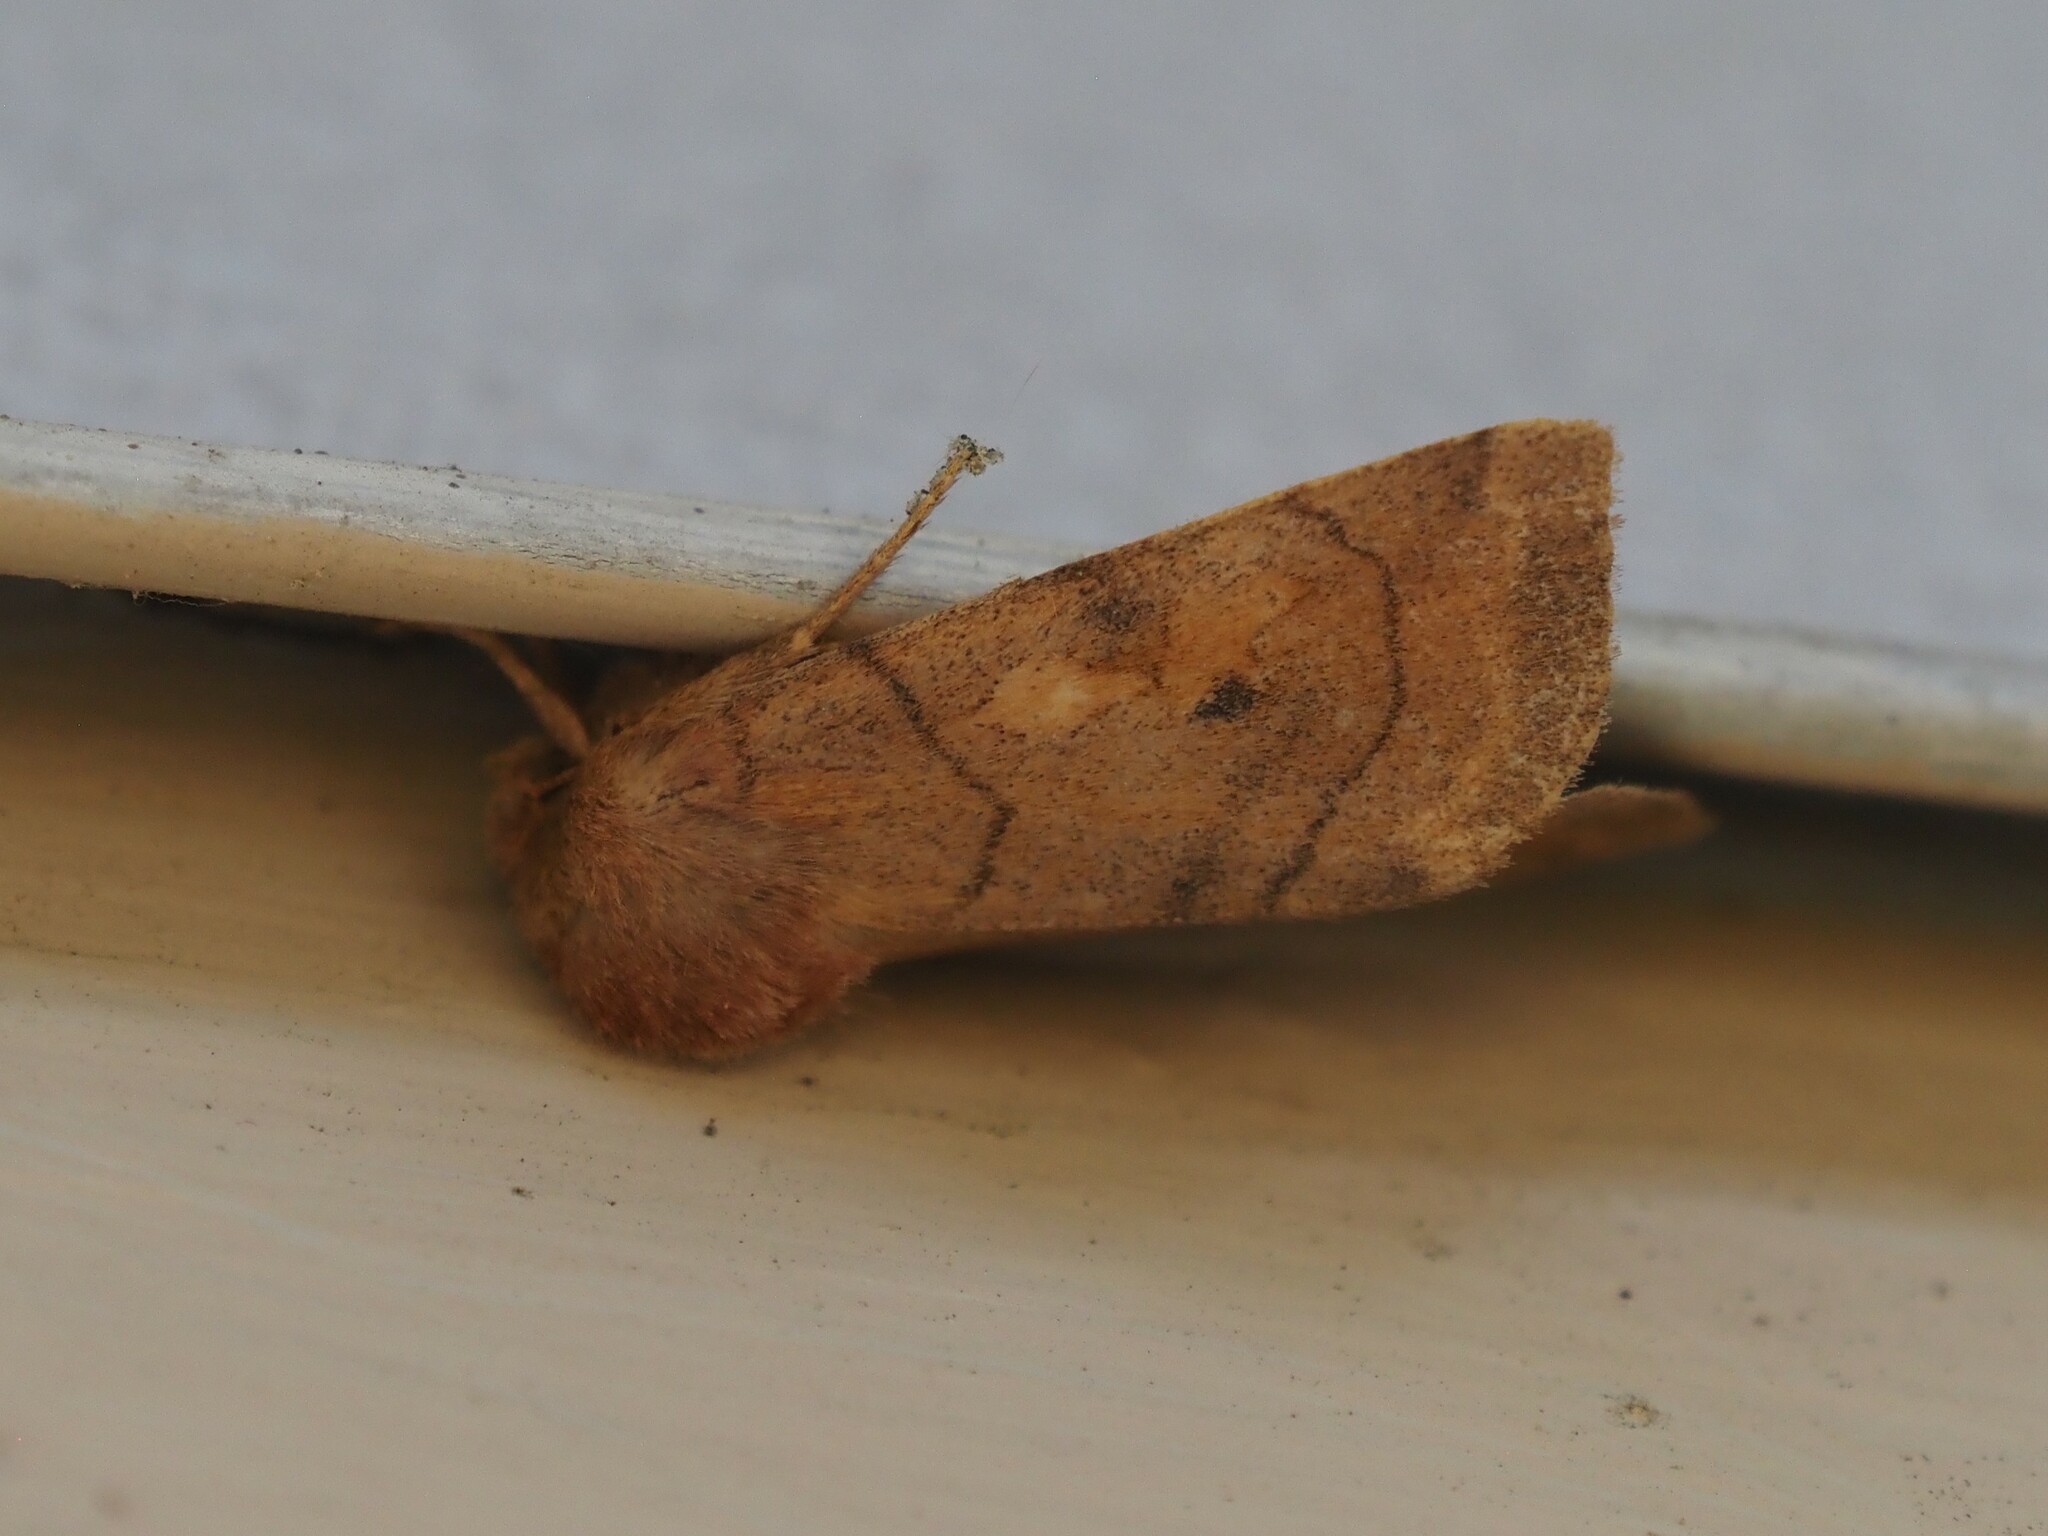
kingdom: Animalia
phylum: Arthropoda
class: Insecta
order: Lepidoptera
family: Noctuidae
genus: Enargia
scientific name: Enargia infumata
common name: Smoked sallow
